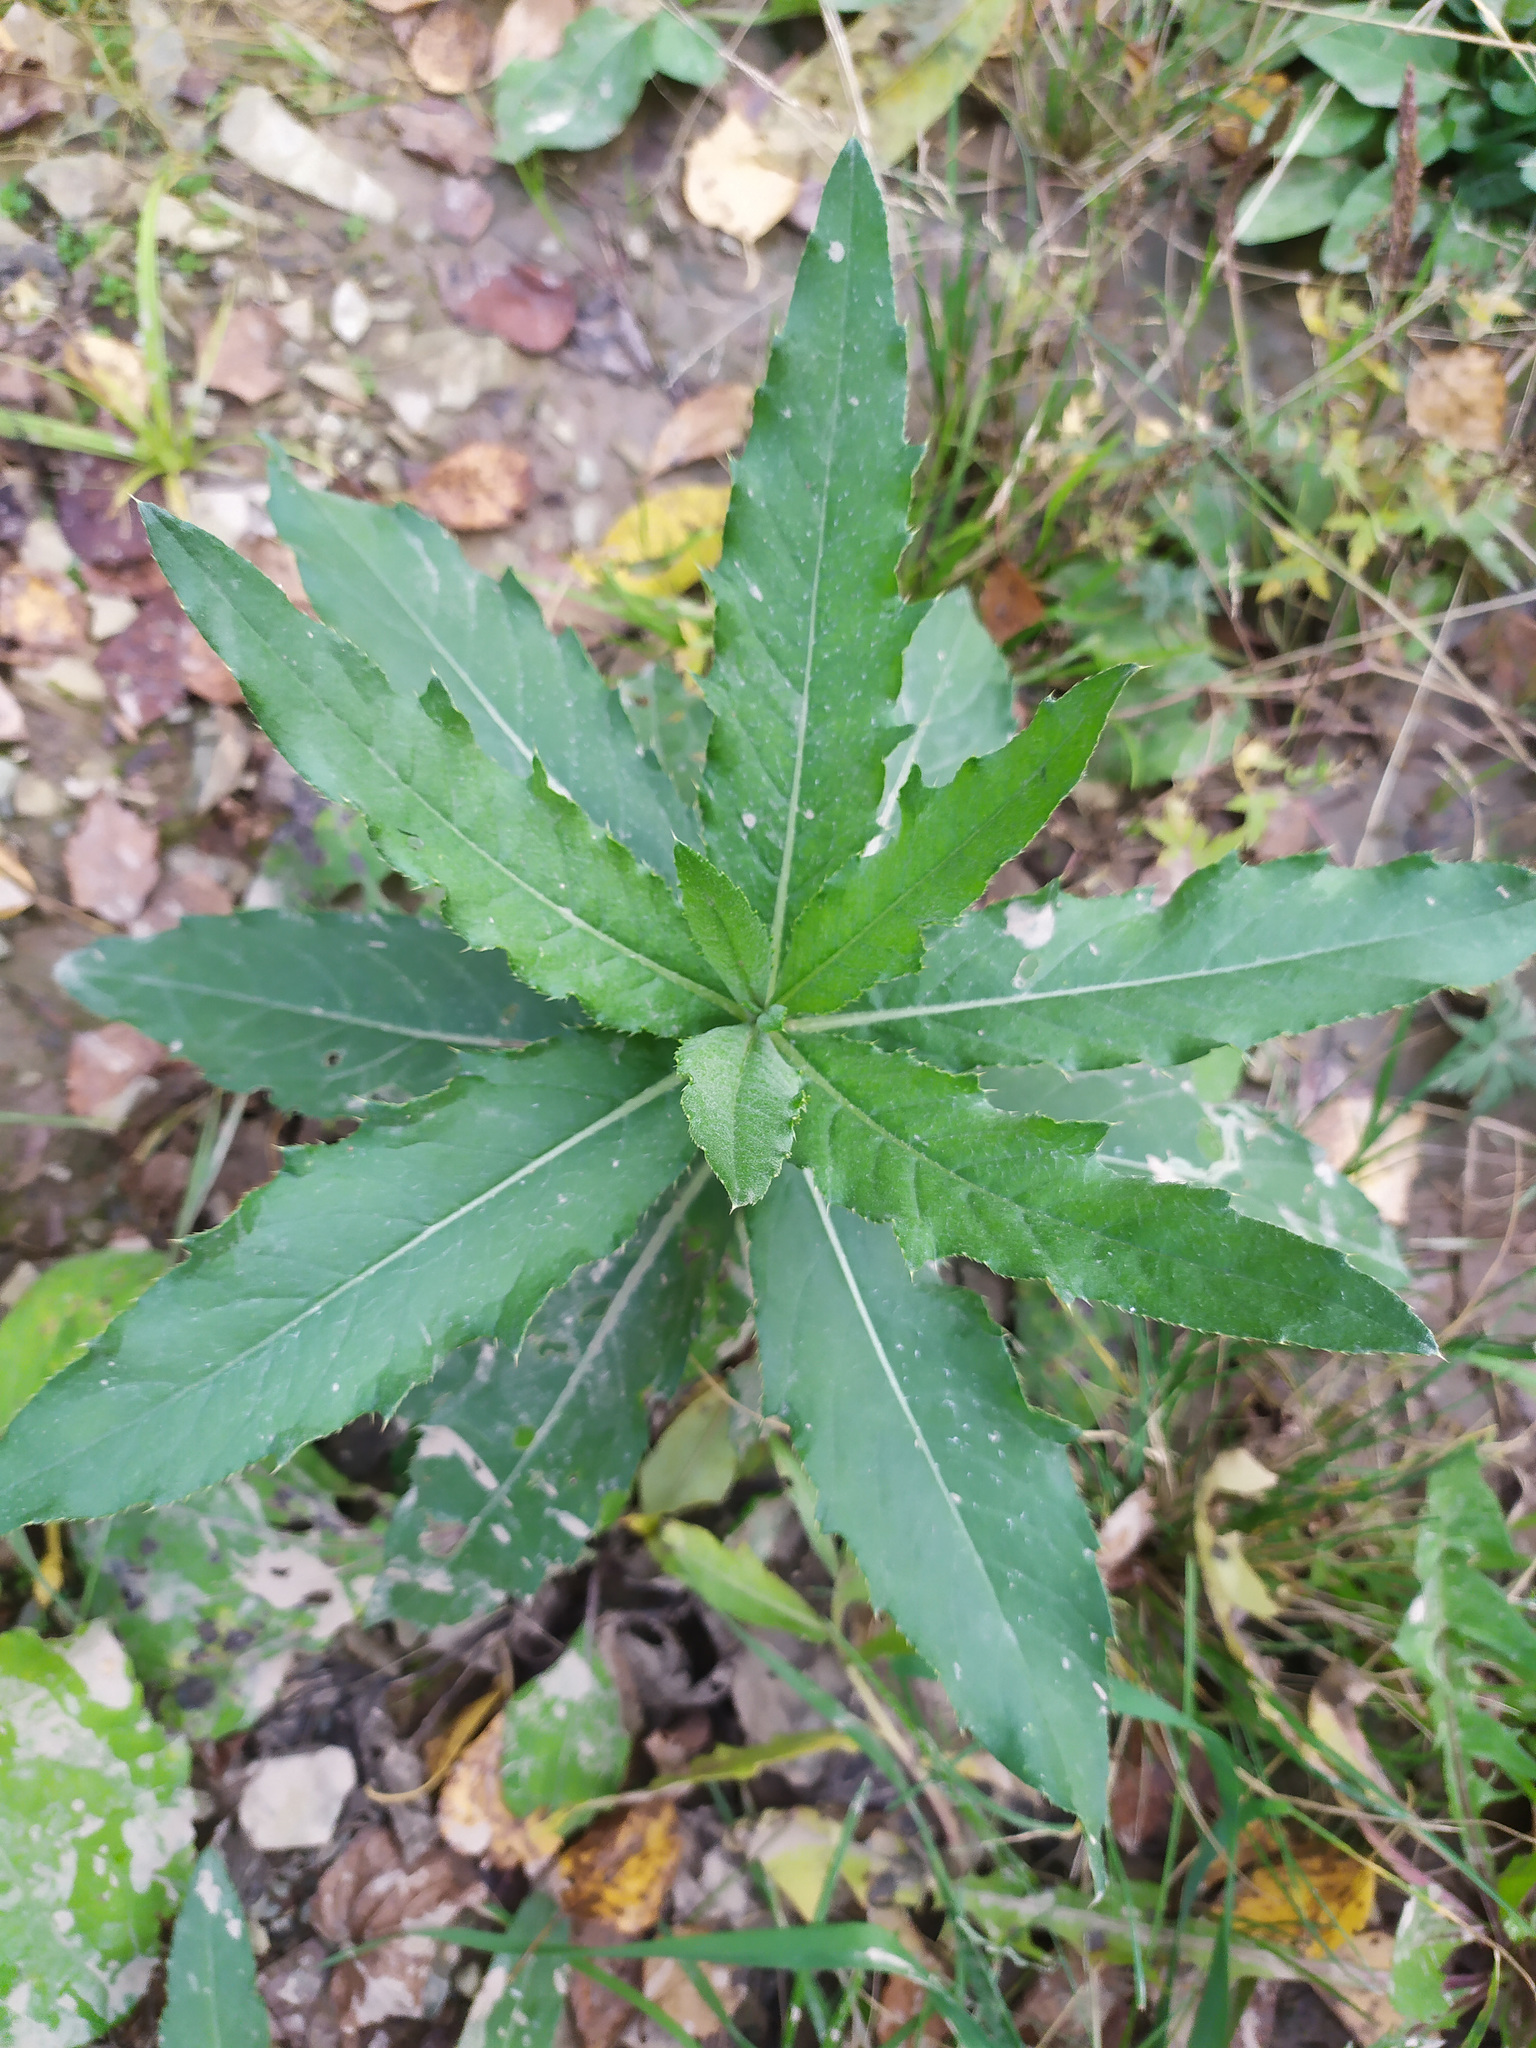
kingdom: Plantae
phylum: Tracheophyta
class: Magnoliopsida
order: Asterales
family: Asteraceae
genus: Cirsium
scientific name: Cirsium arvense
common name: Creeping thistle
